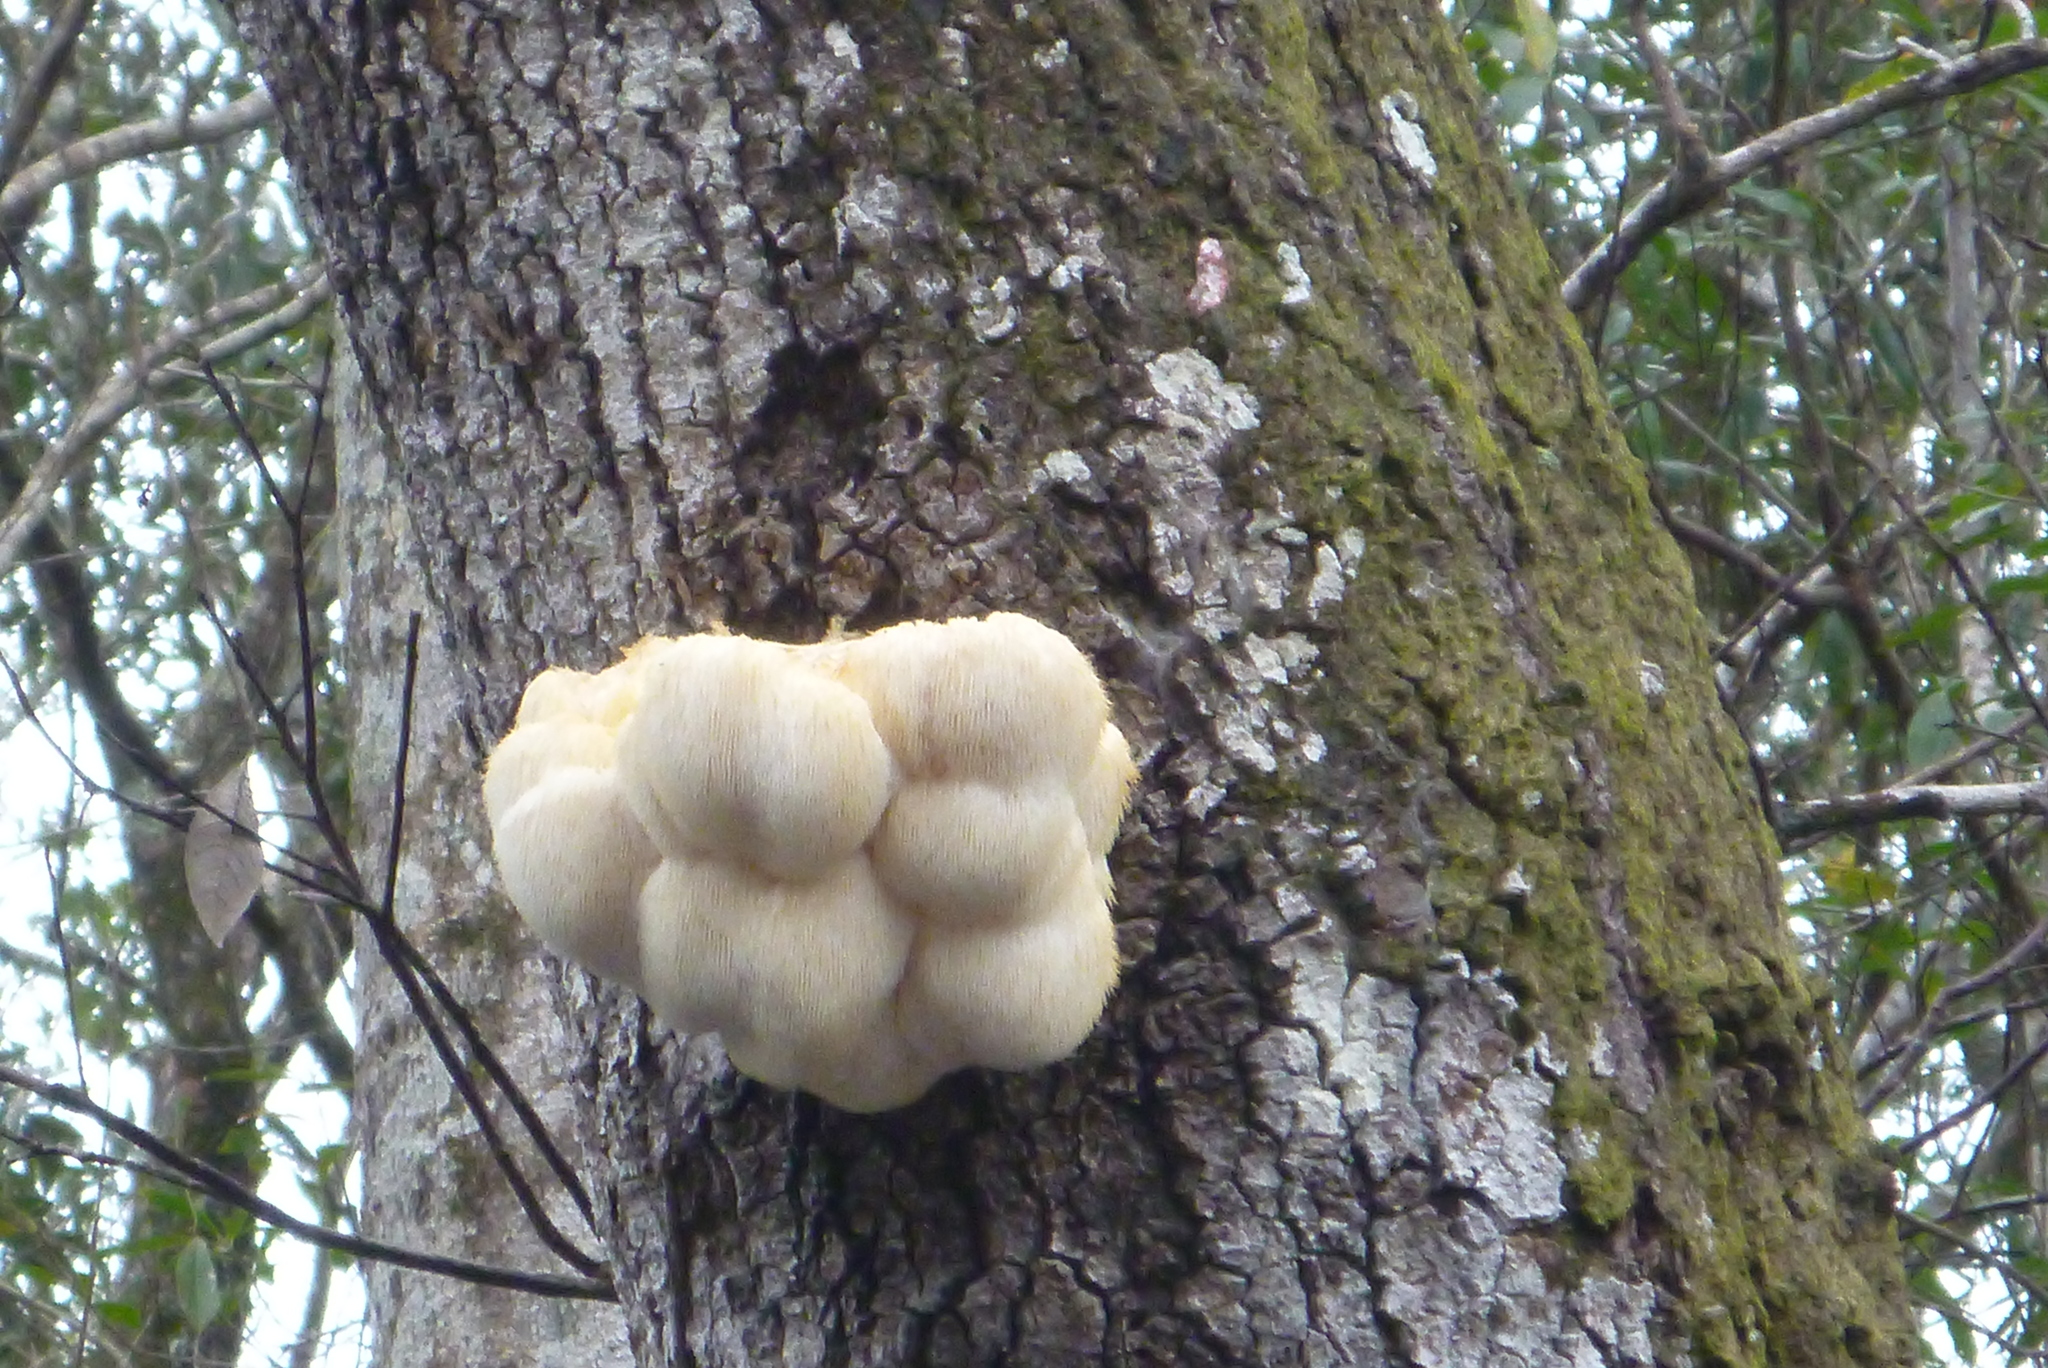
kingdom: Fungi
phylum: Basidiomycota
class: Agaricomycetes
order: Russulales
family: Hericiaceae
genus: Hericium
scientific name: Hericium erinaceus
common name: Bearded tooth
